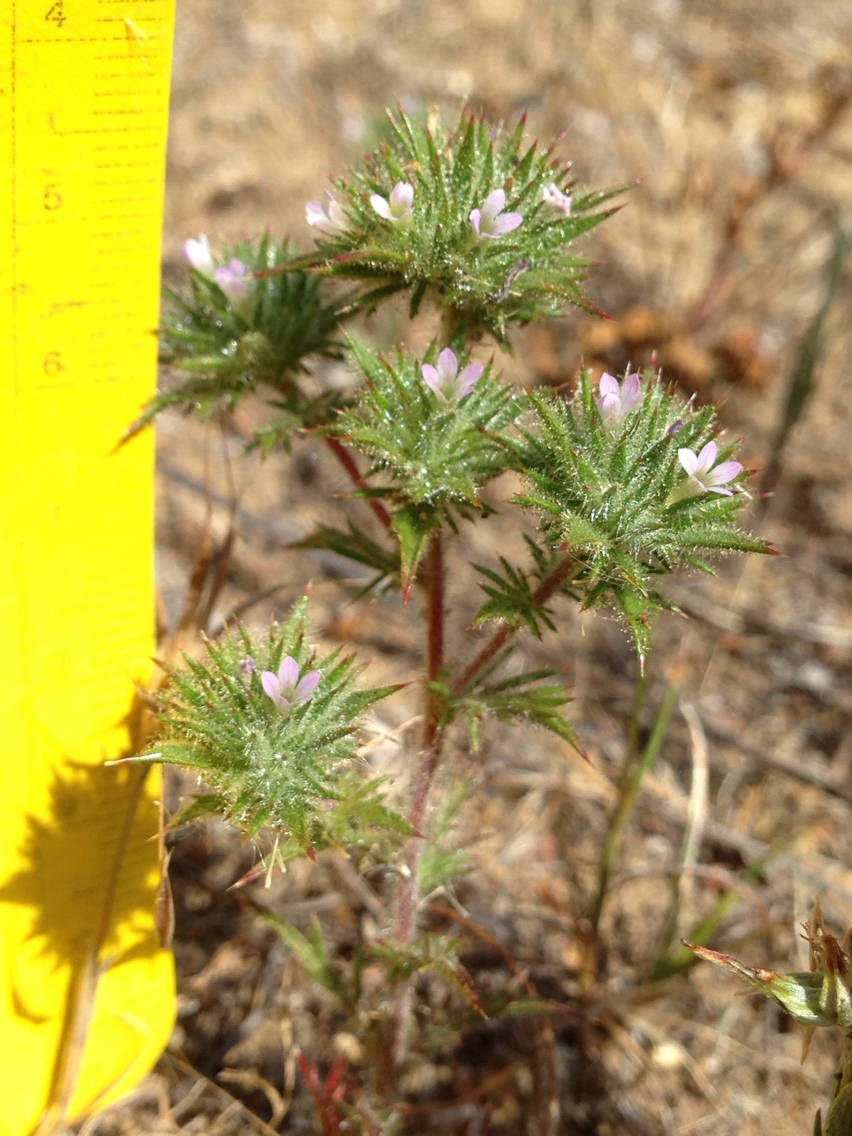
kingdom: Plantae
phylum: Tracheophyta
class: Magnoliopsida
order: Ericales
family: Polemoniaceae
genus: Navarretia
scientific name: Navarretia mellita
